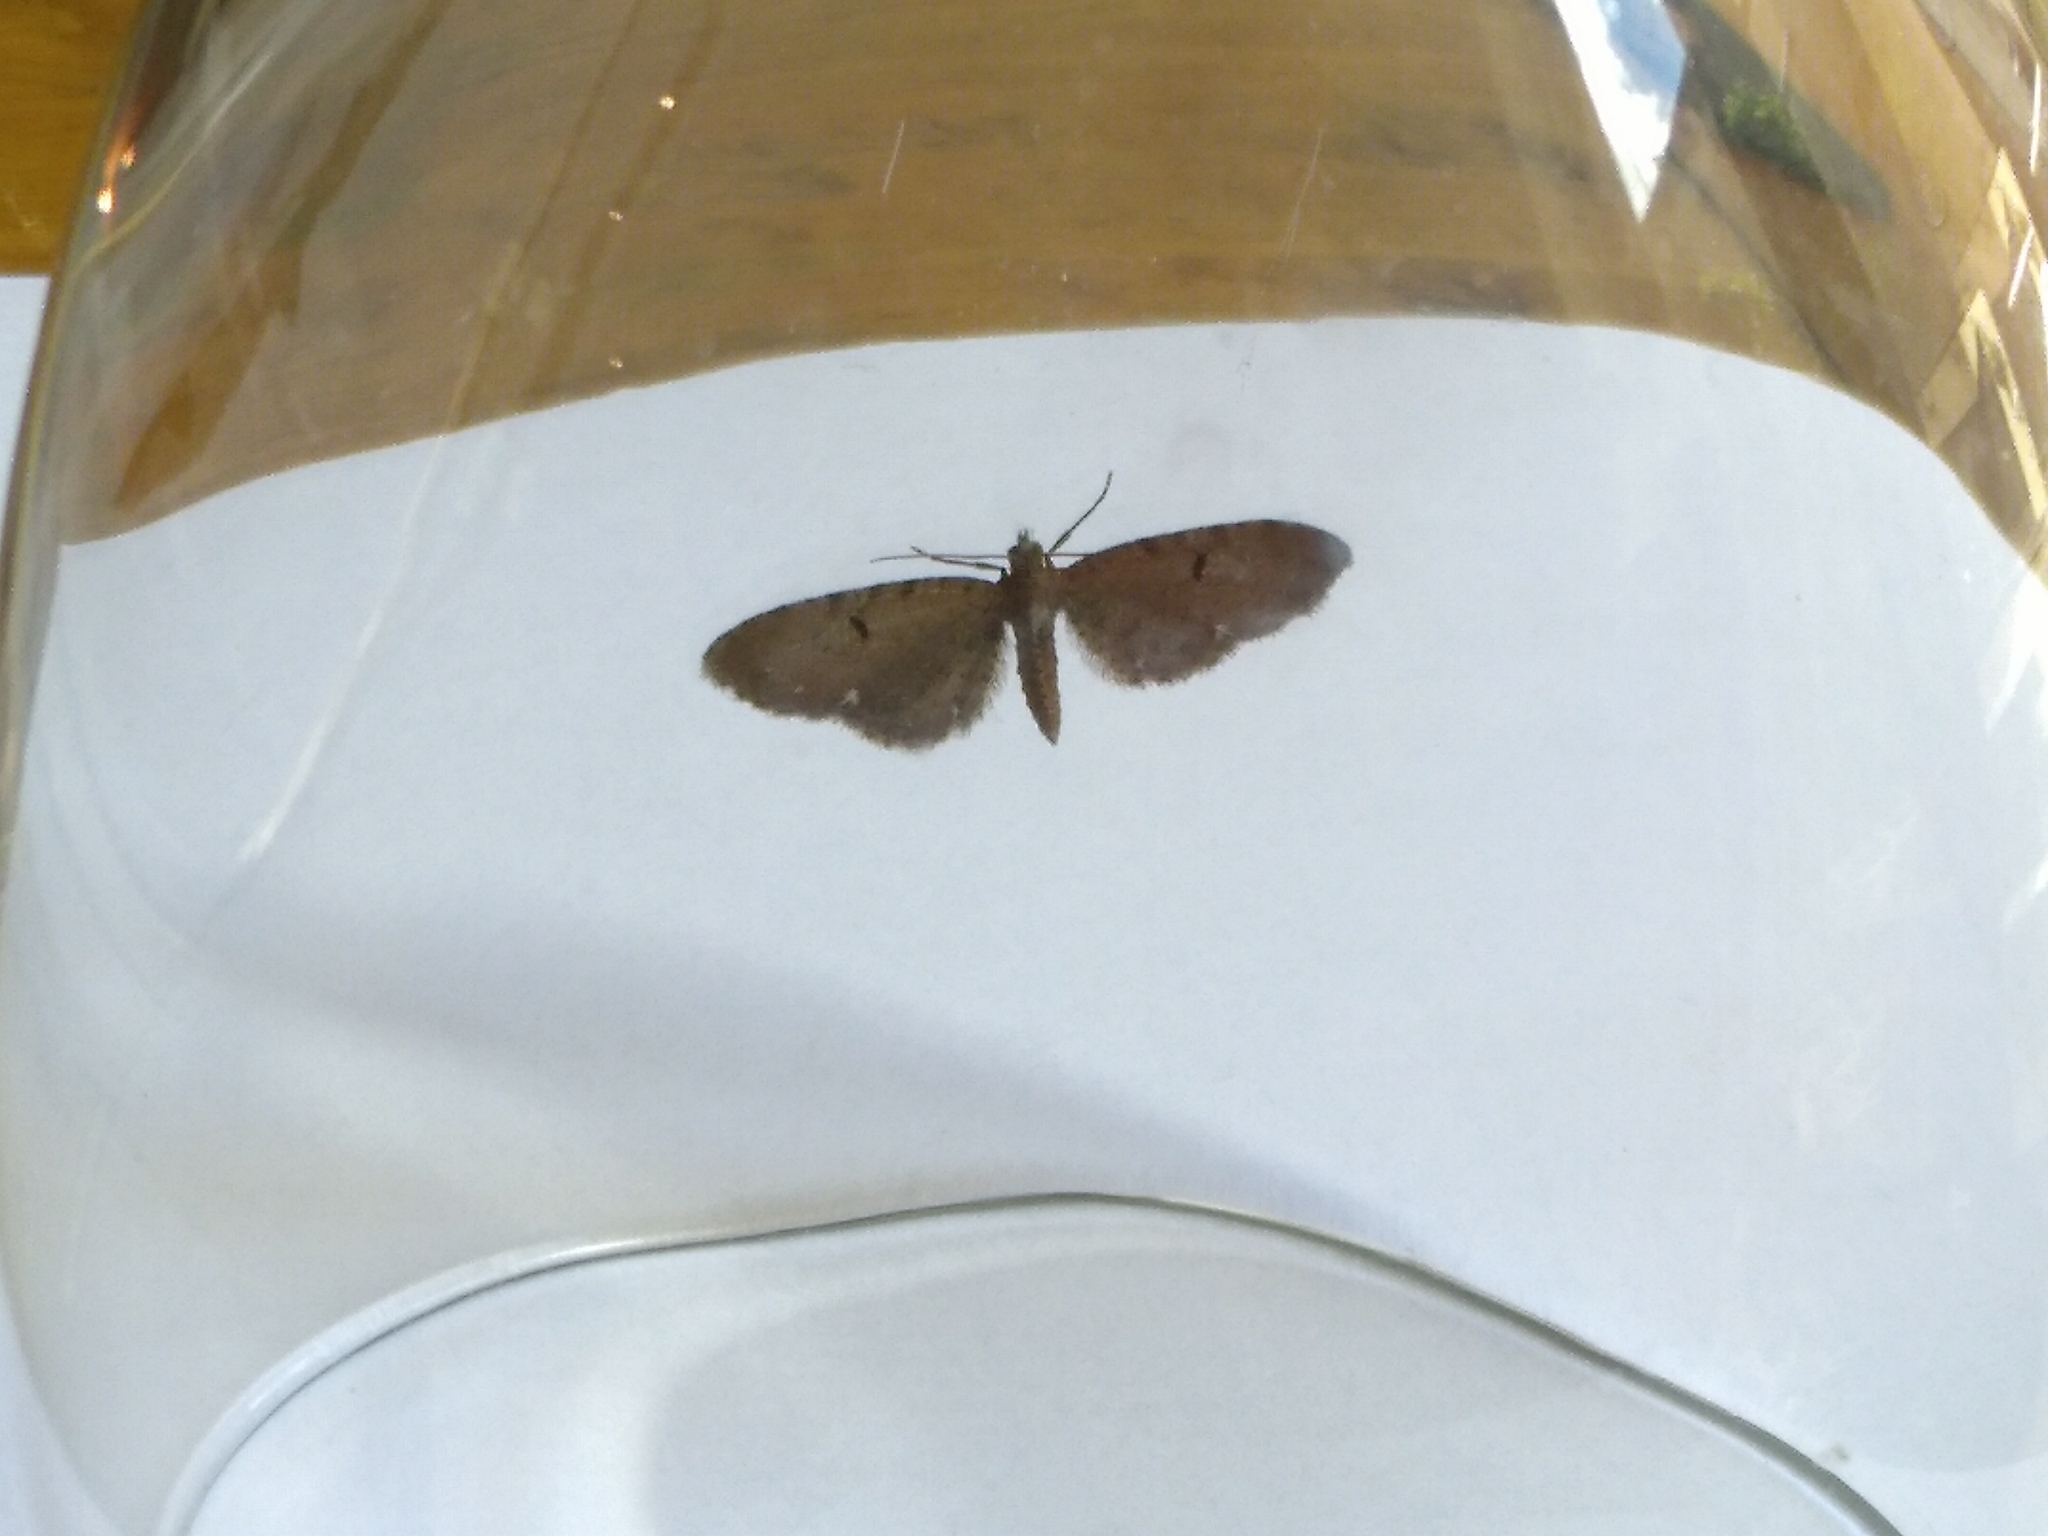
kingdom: Animalia
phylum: Arthropoda
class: Insecta
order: Lepidoptera
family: Geometridae
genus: Eupithecia
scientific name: Eupithecia absinthiata
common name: Wormwood pug
